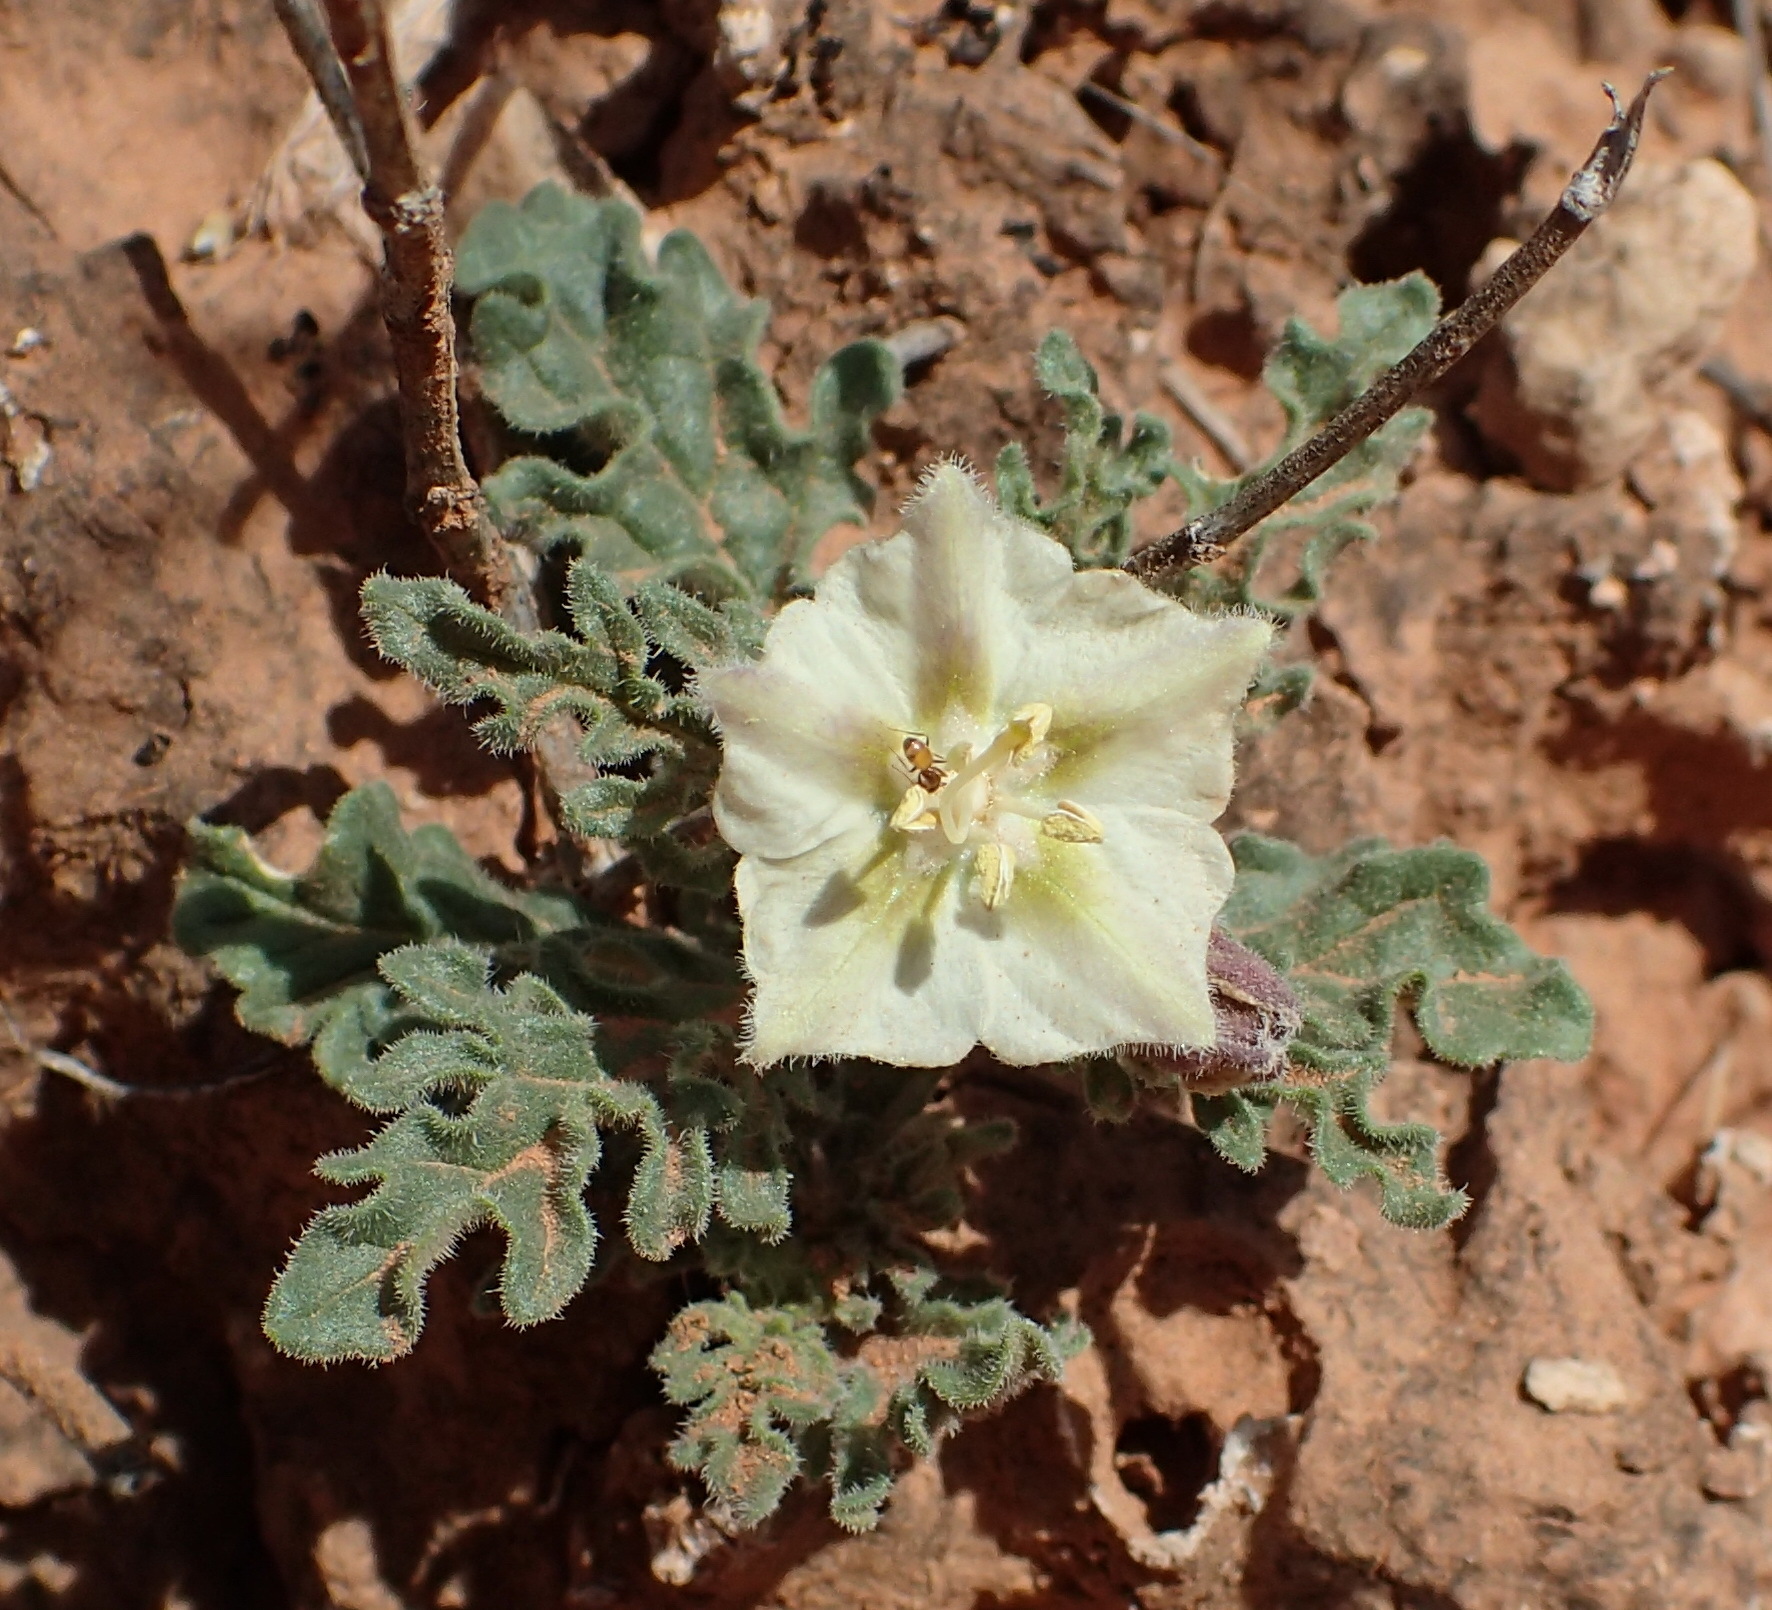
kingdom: Plantae
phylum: Tracheophyta
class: Magnoliopsida
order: Solanales
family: Solanaceae
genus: Chamaesaracha
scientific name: Chamaesaracha sordida
